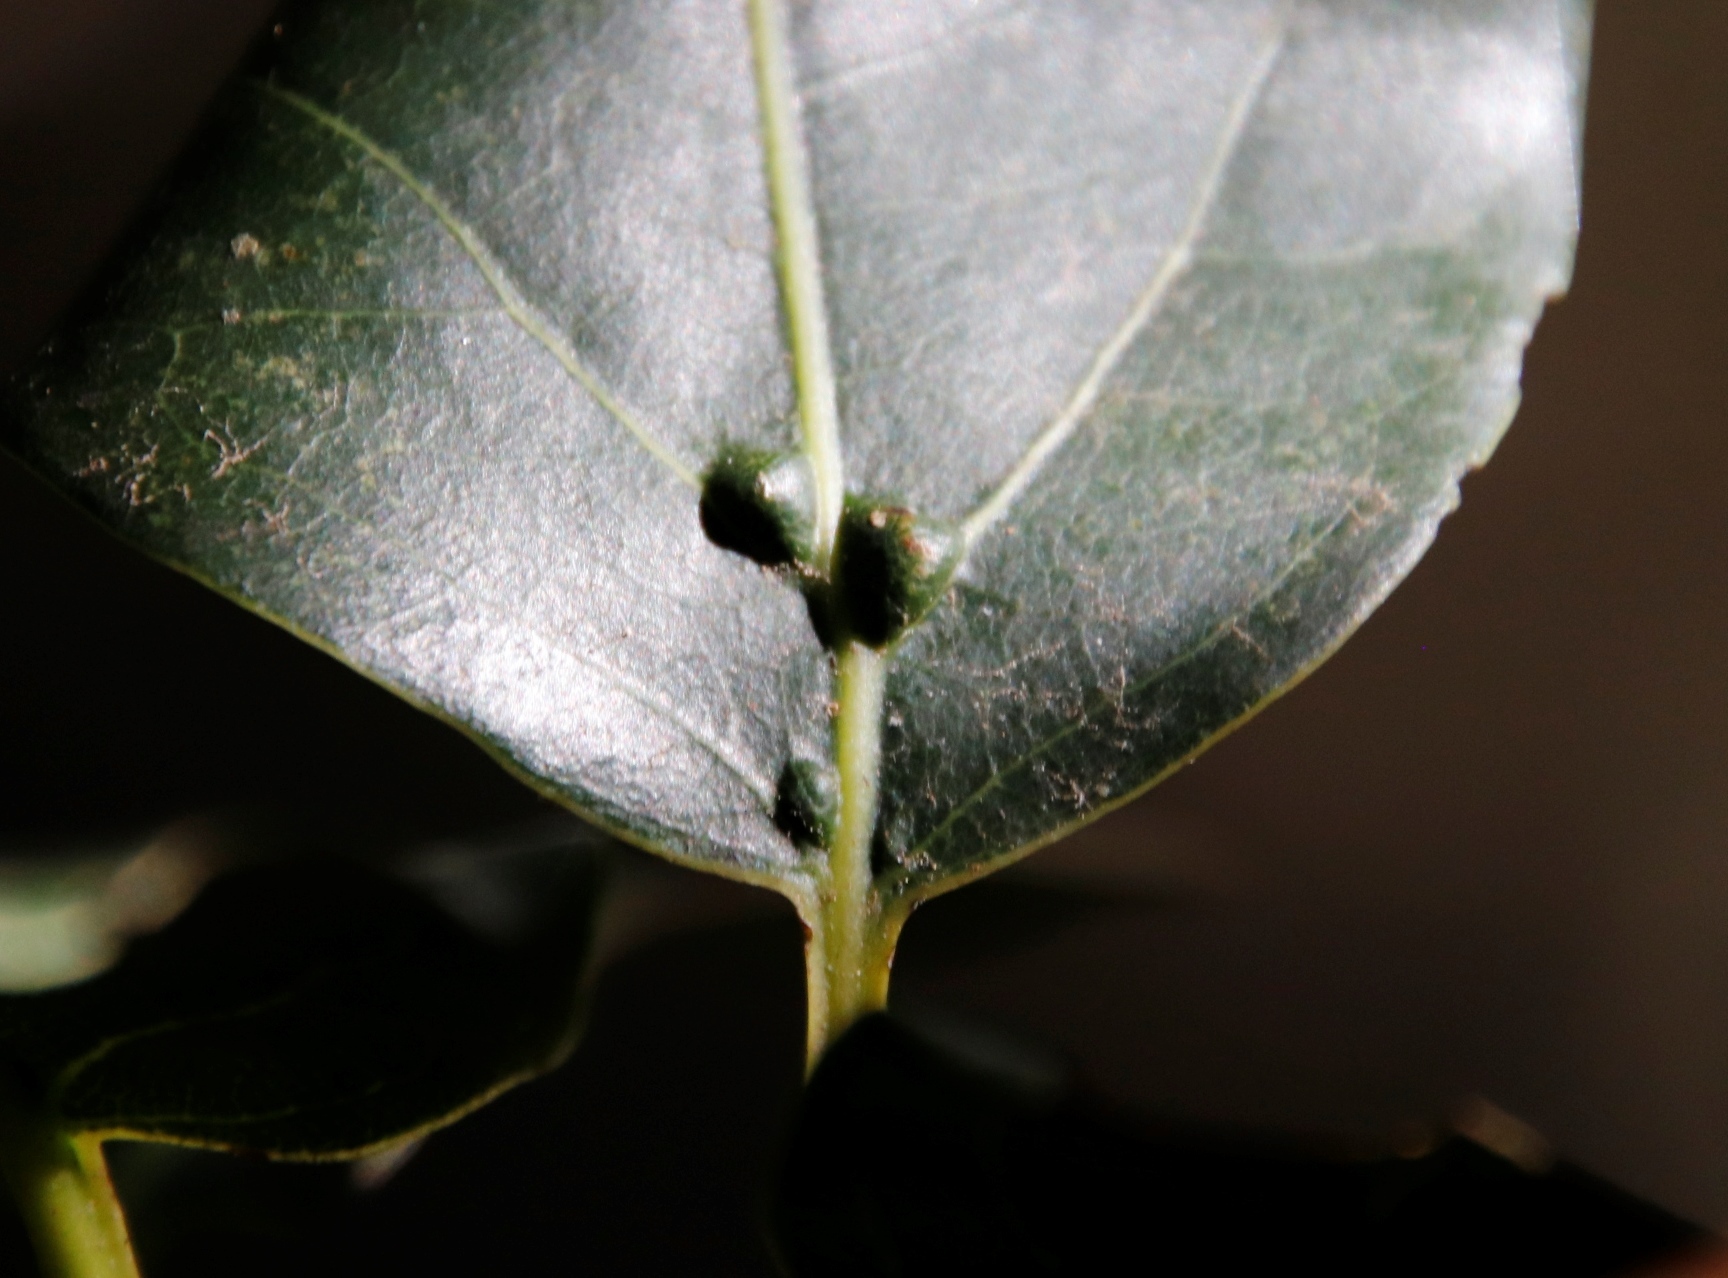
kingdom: Plantae
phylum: Tracheophyta
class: Magnoliopsida
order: Laurales
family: Lauraceae
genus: Ocotea
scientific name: Ocotea bullata
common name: Black stinkwood
